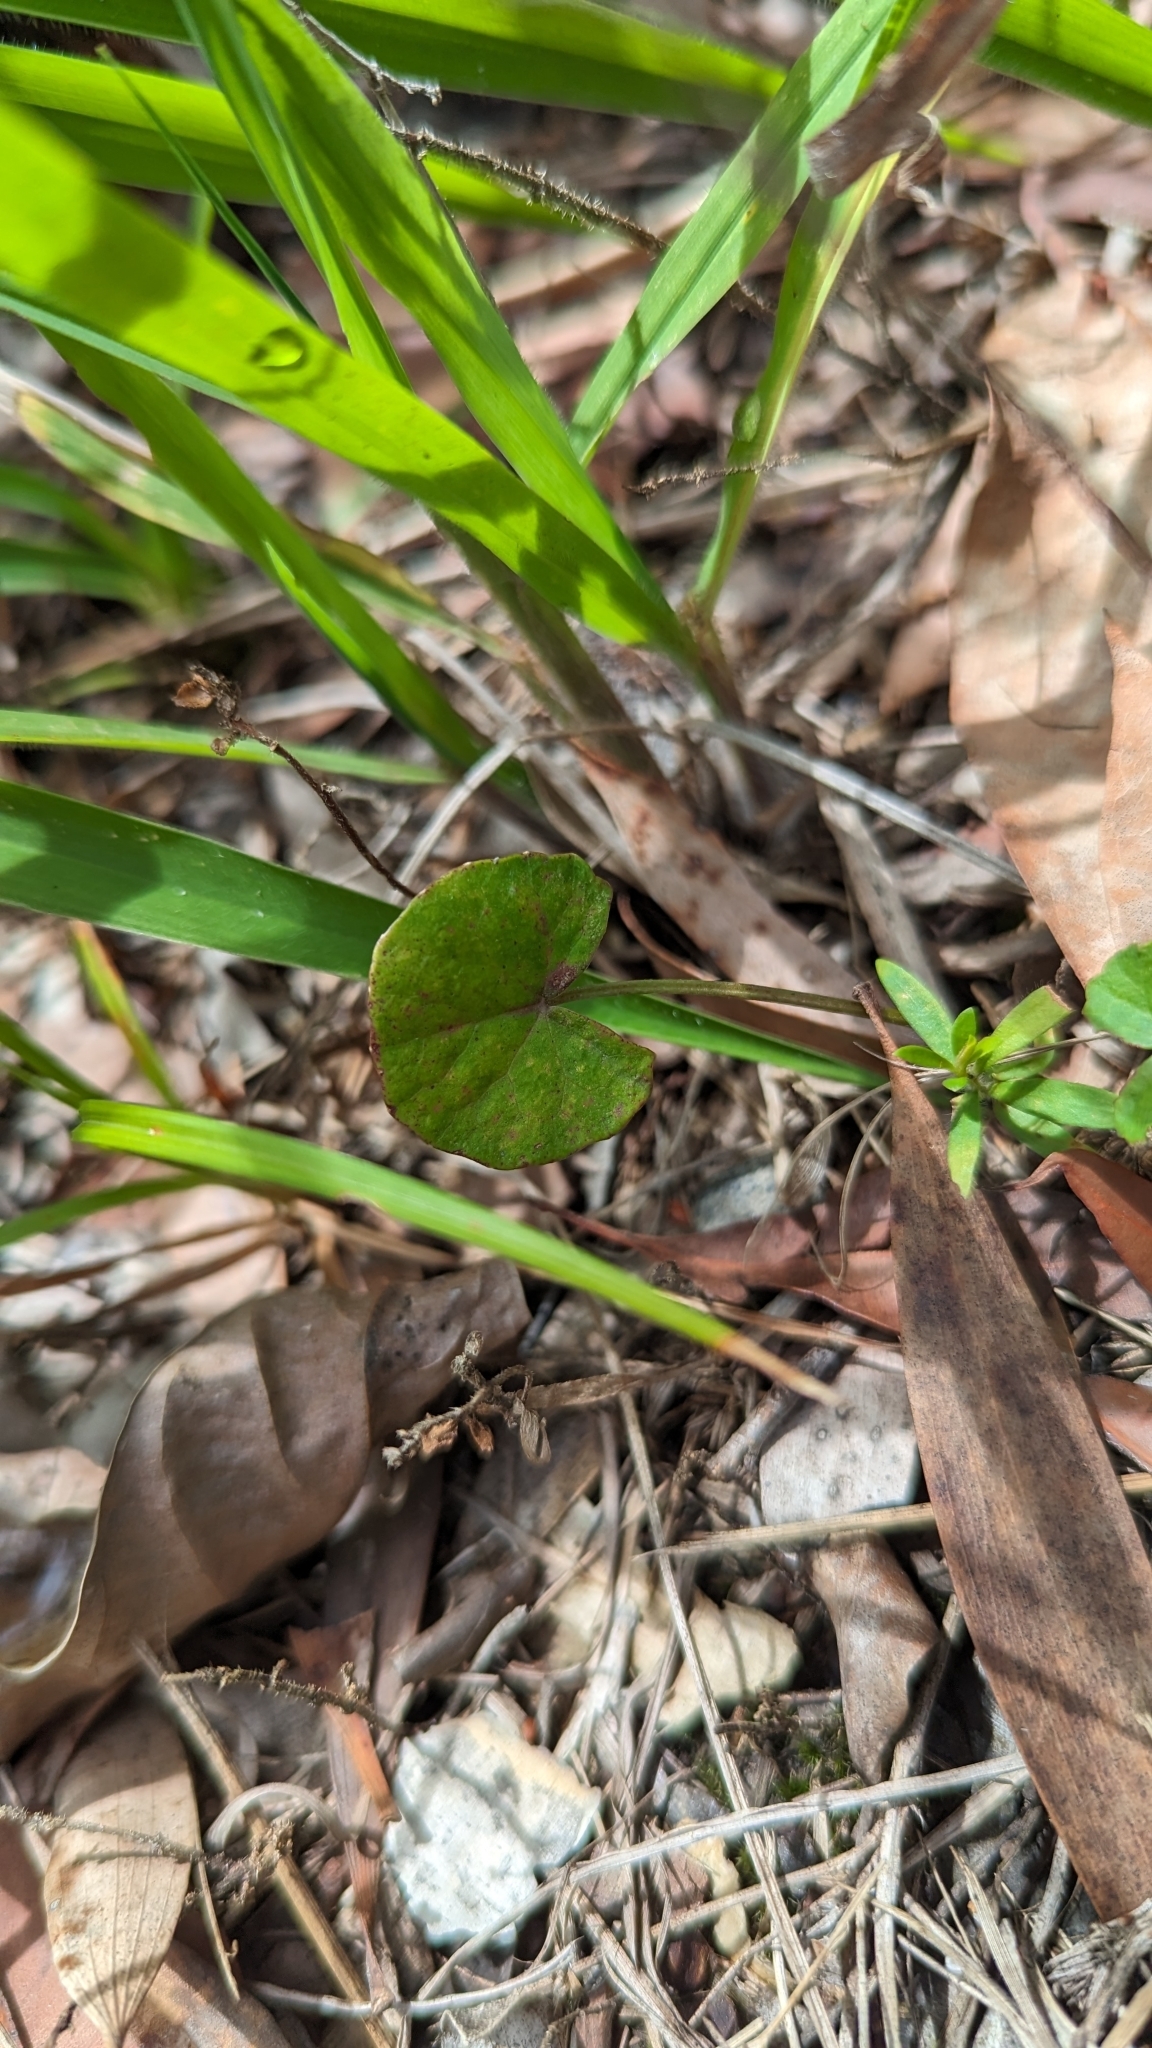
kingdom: Plantae
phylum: Tracheophyta
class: Magnoliopsida
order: Apiales
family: Apiaceae
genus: Centella
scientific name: Centella asiatica
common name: Spadeleaf
